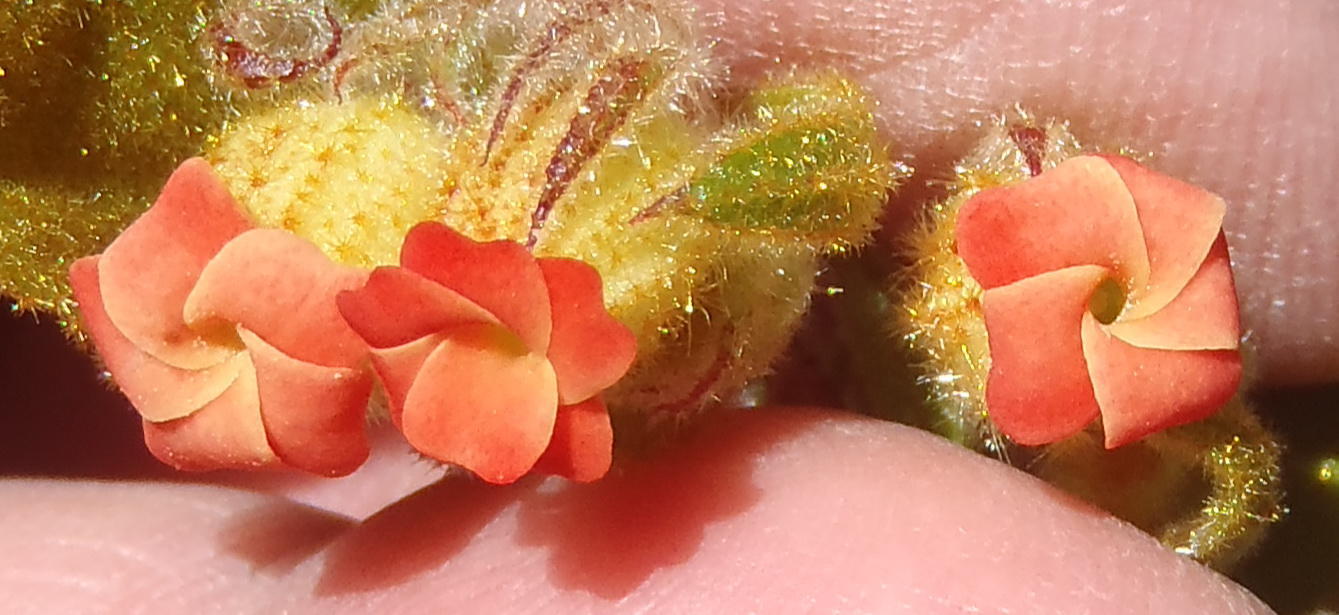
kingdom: Plantae
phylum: Tracheophyta
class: Magnoliopsida
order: Malvales
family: Malvaceae
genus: Hermannia
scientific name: Hermannia salviifolia
